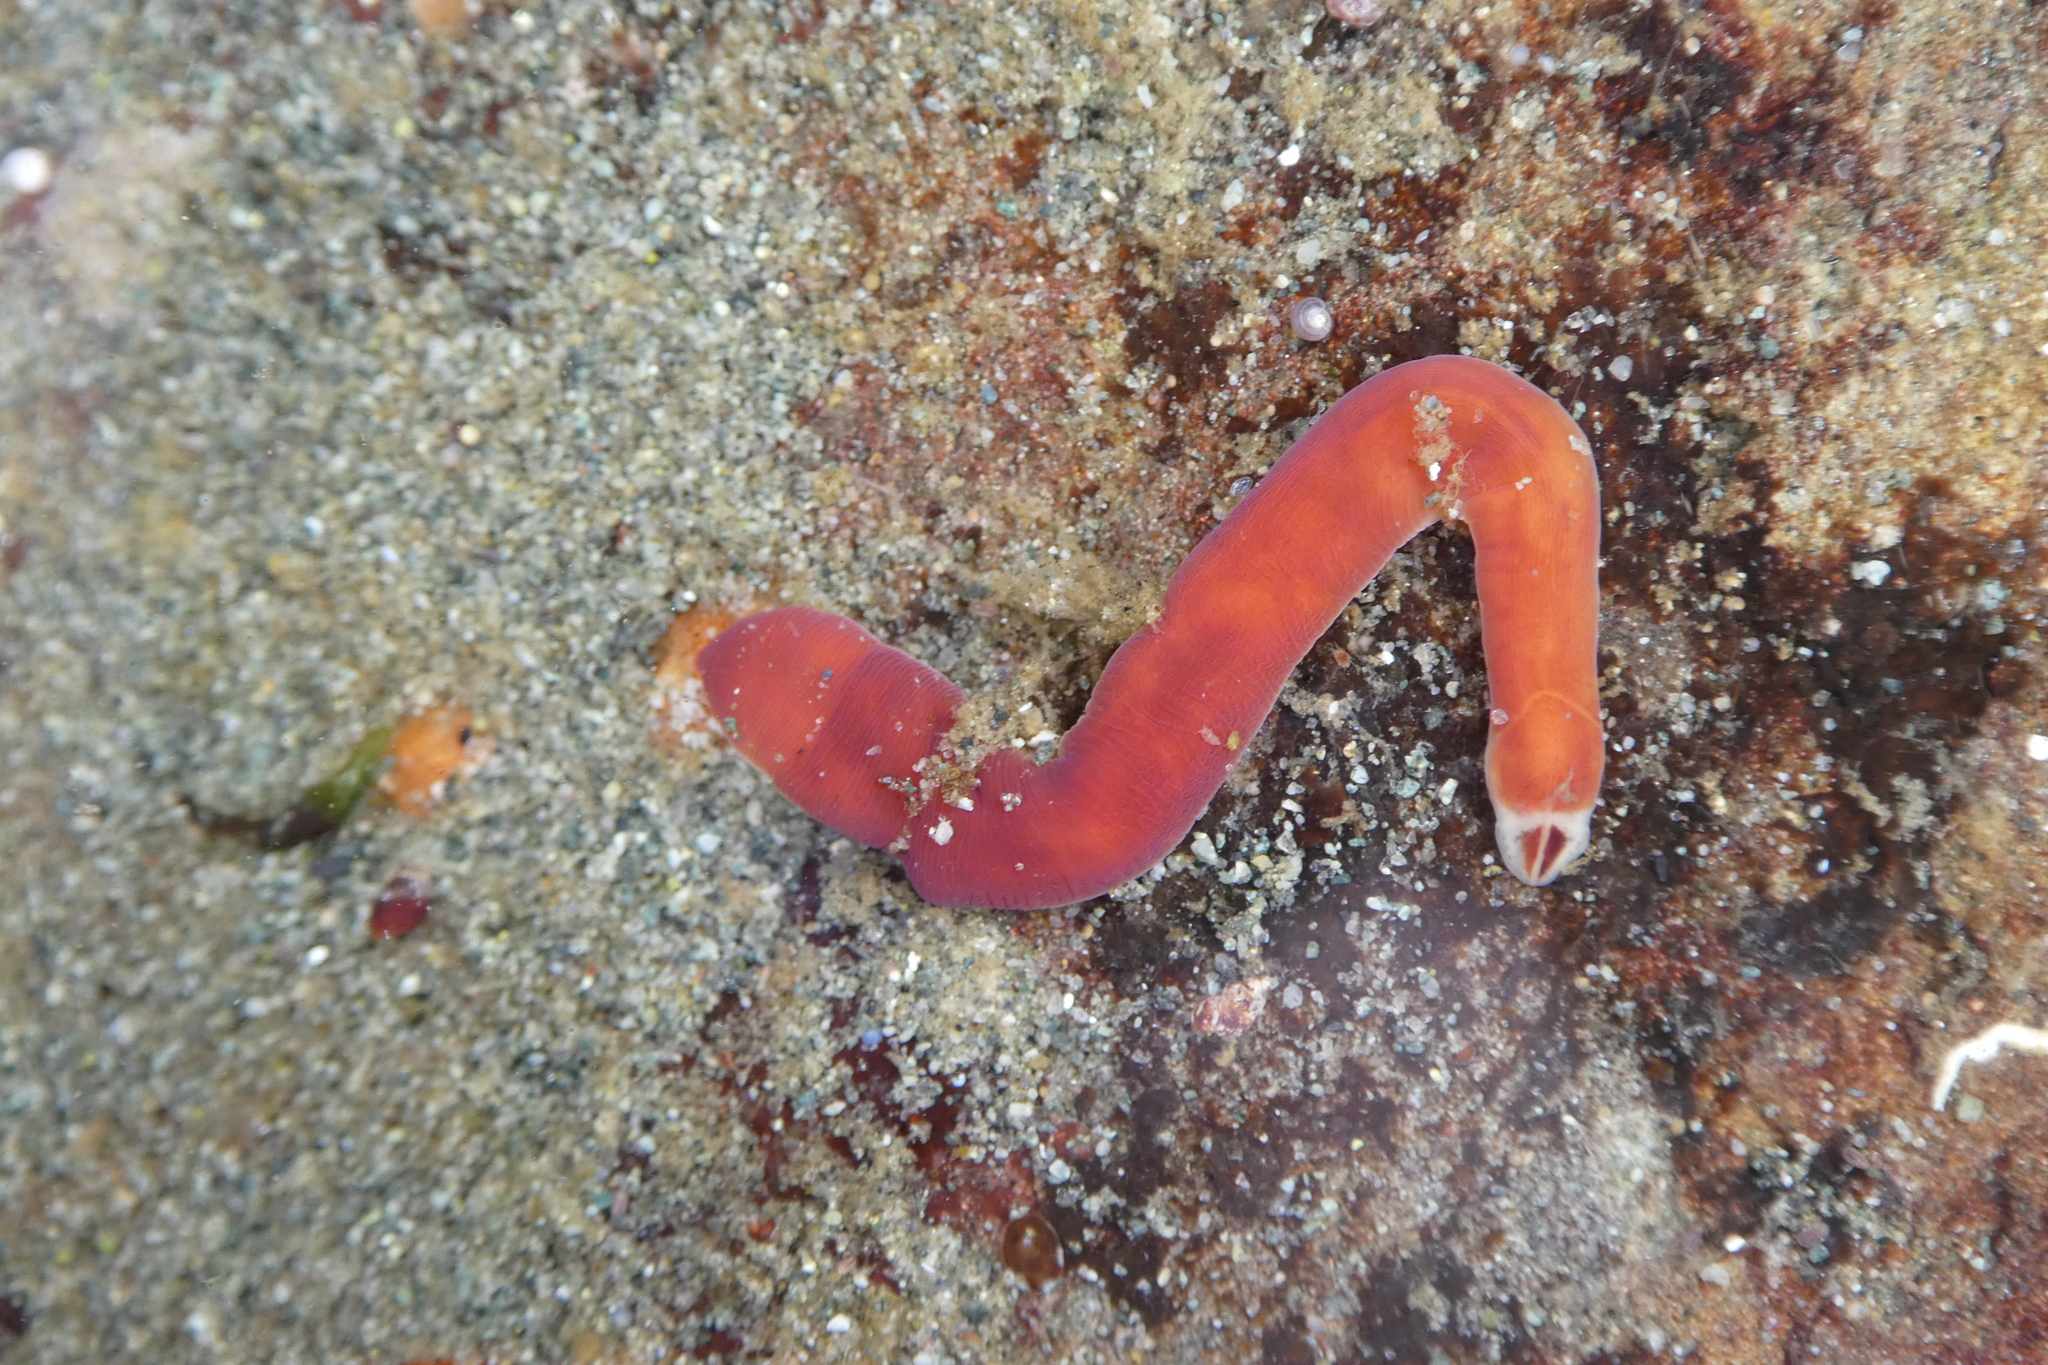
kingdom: Animalia
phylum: Nemertea
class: Hoplonemertea
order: Monostilifera
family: Cratenemertidae
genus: Nipponnemertes
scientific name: Nipponnemertes bimaculata
